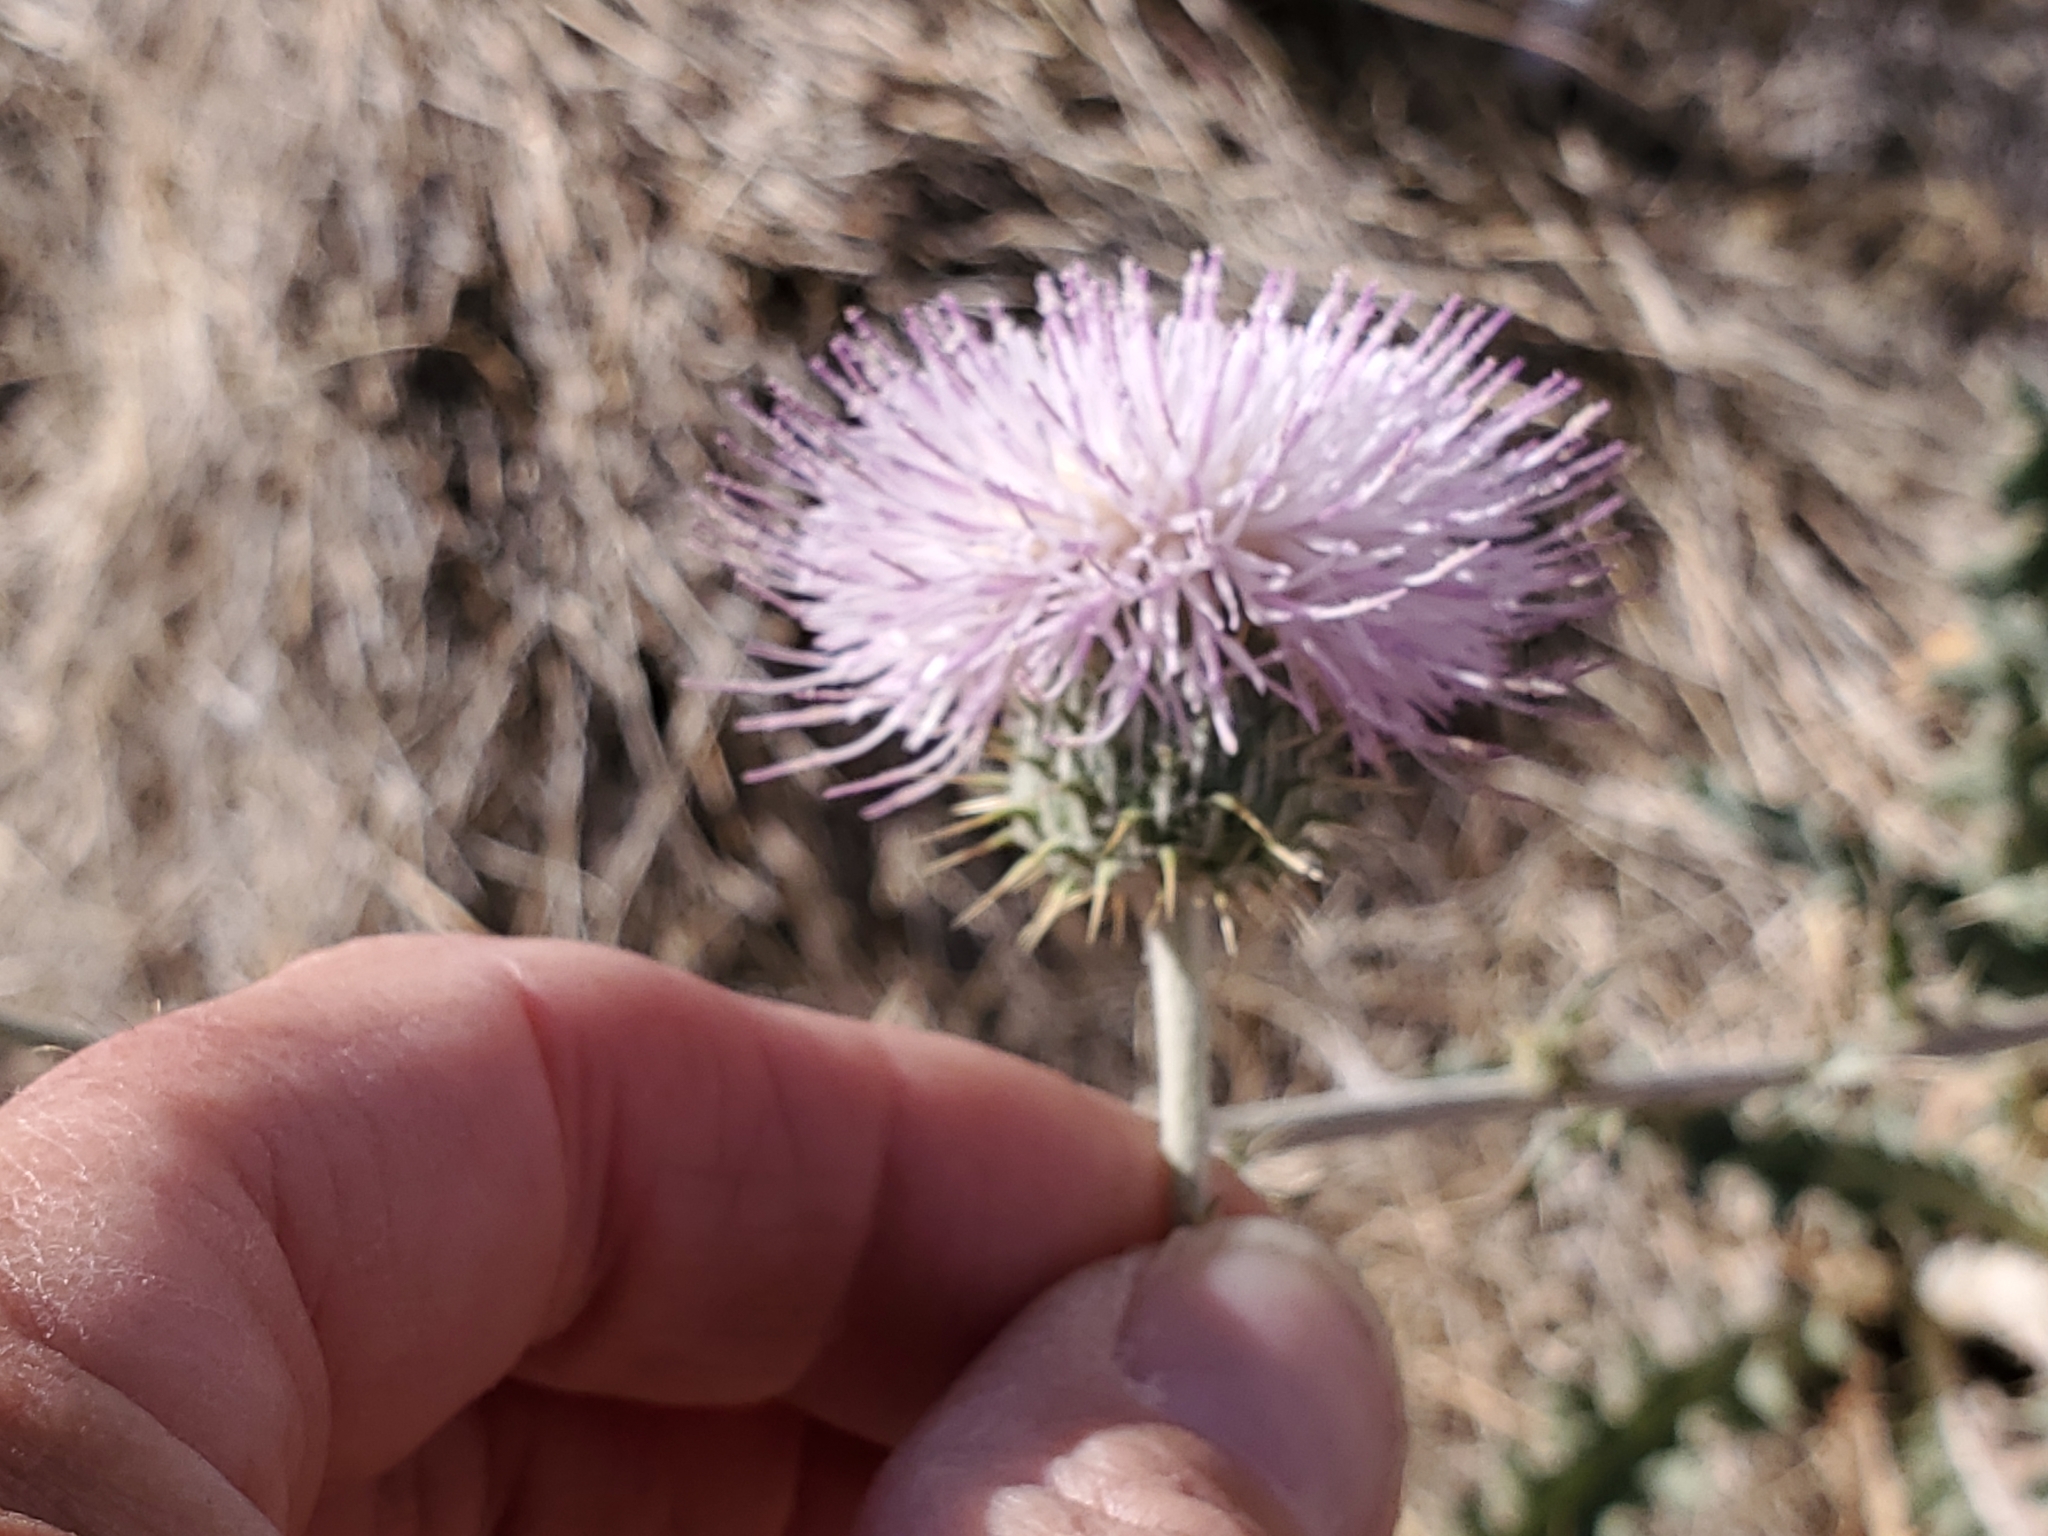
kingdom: Plantae
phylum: Tracheophyta
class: Magnoliopsida
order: Asterales
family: Asteraceae
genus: Cirsium
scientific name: Cirsium neomexicanum
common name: New mexico thistle
